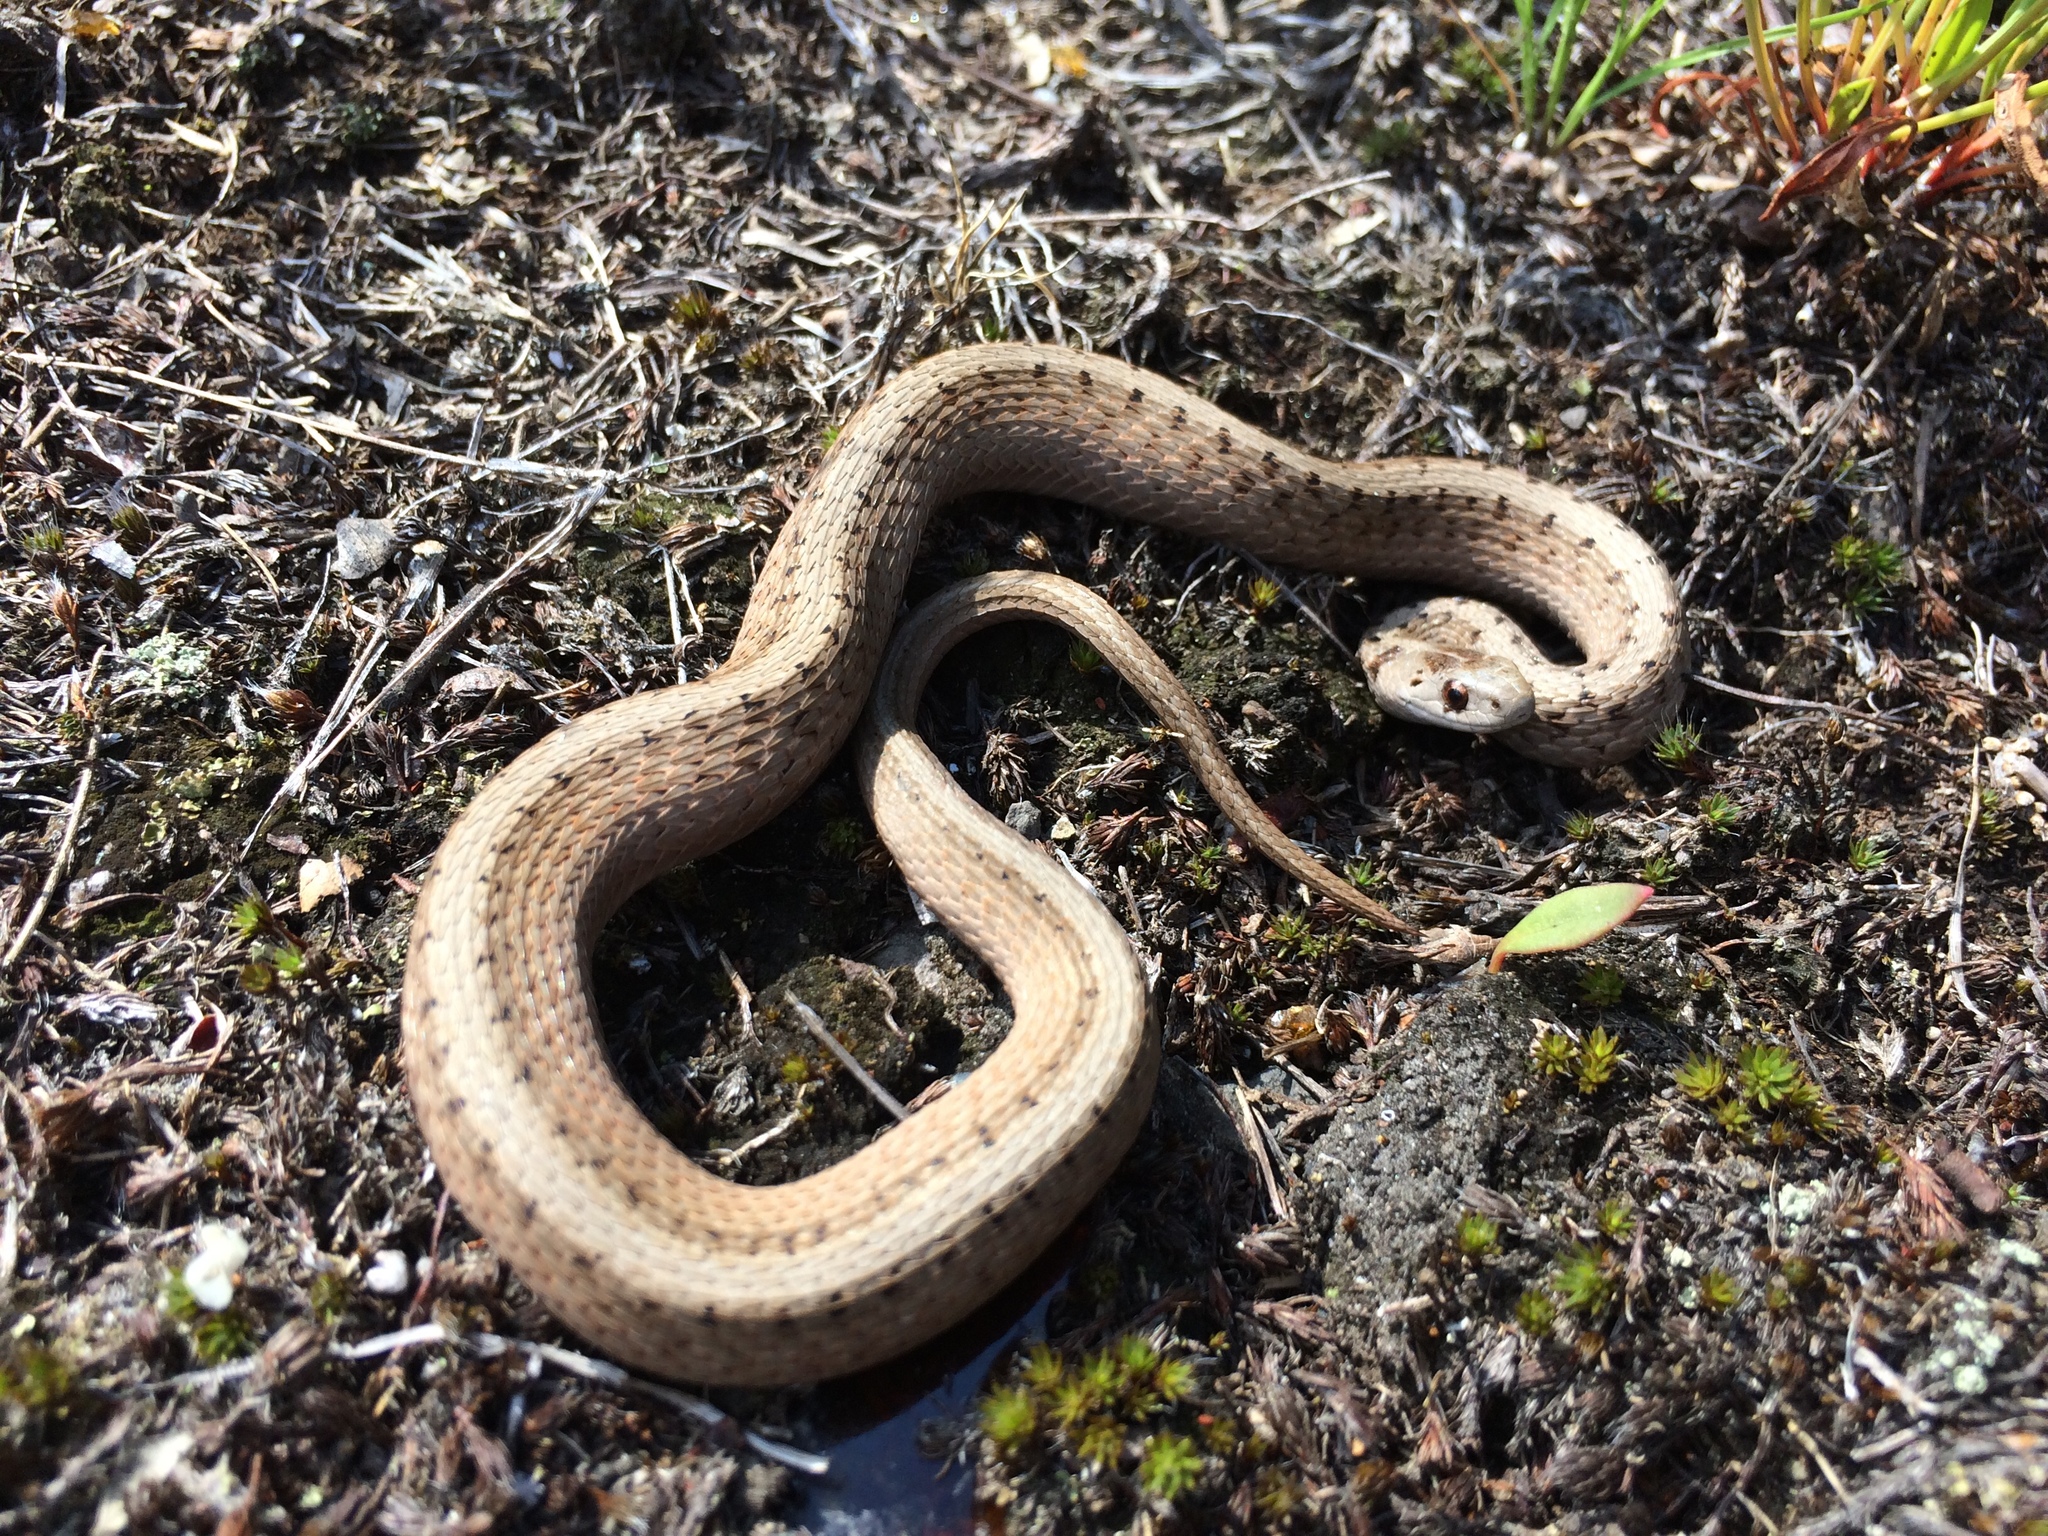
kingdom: Animalia
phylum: Chordata
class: Squamata
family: Colubridae
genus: Storeria
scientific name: Storeria dekayi
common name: (dekay’s) brown snake
